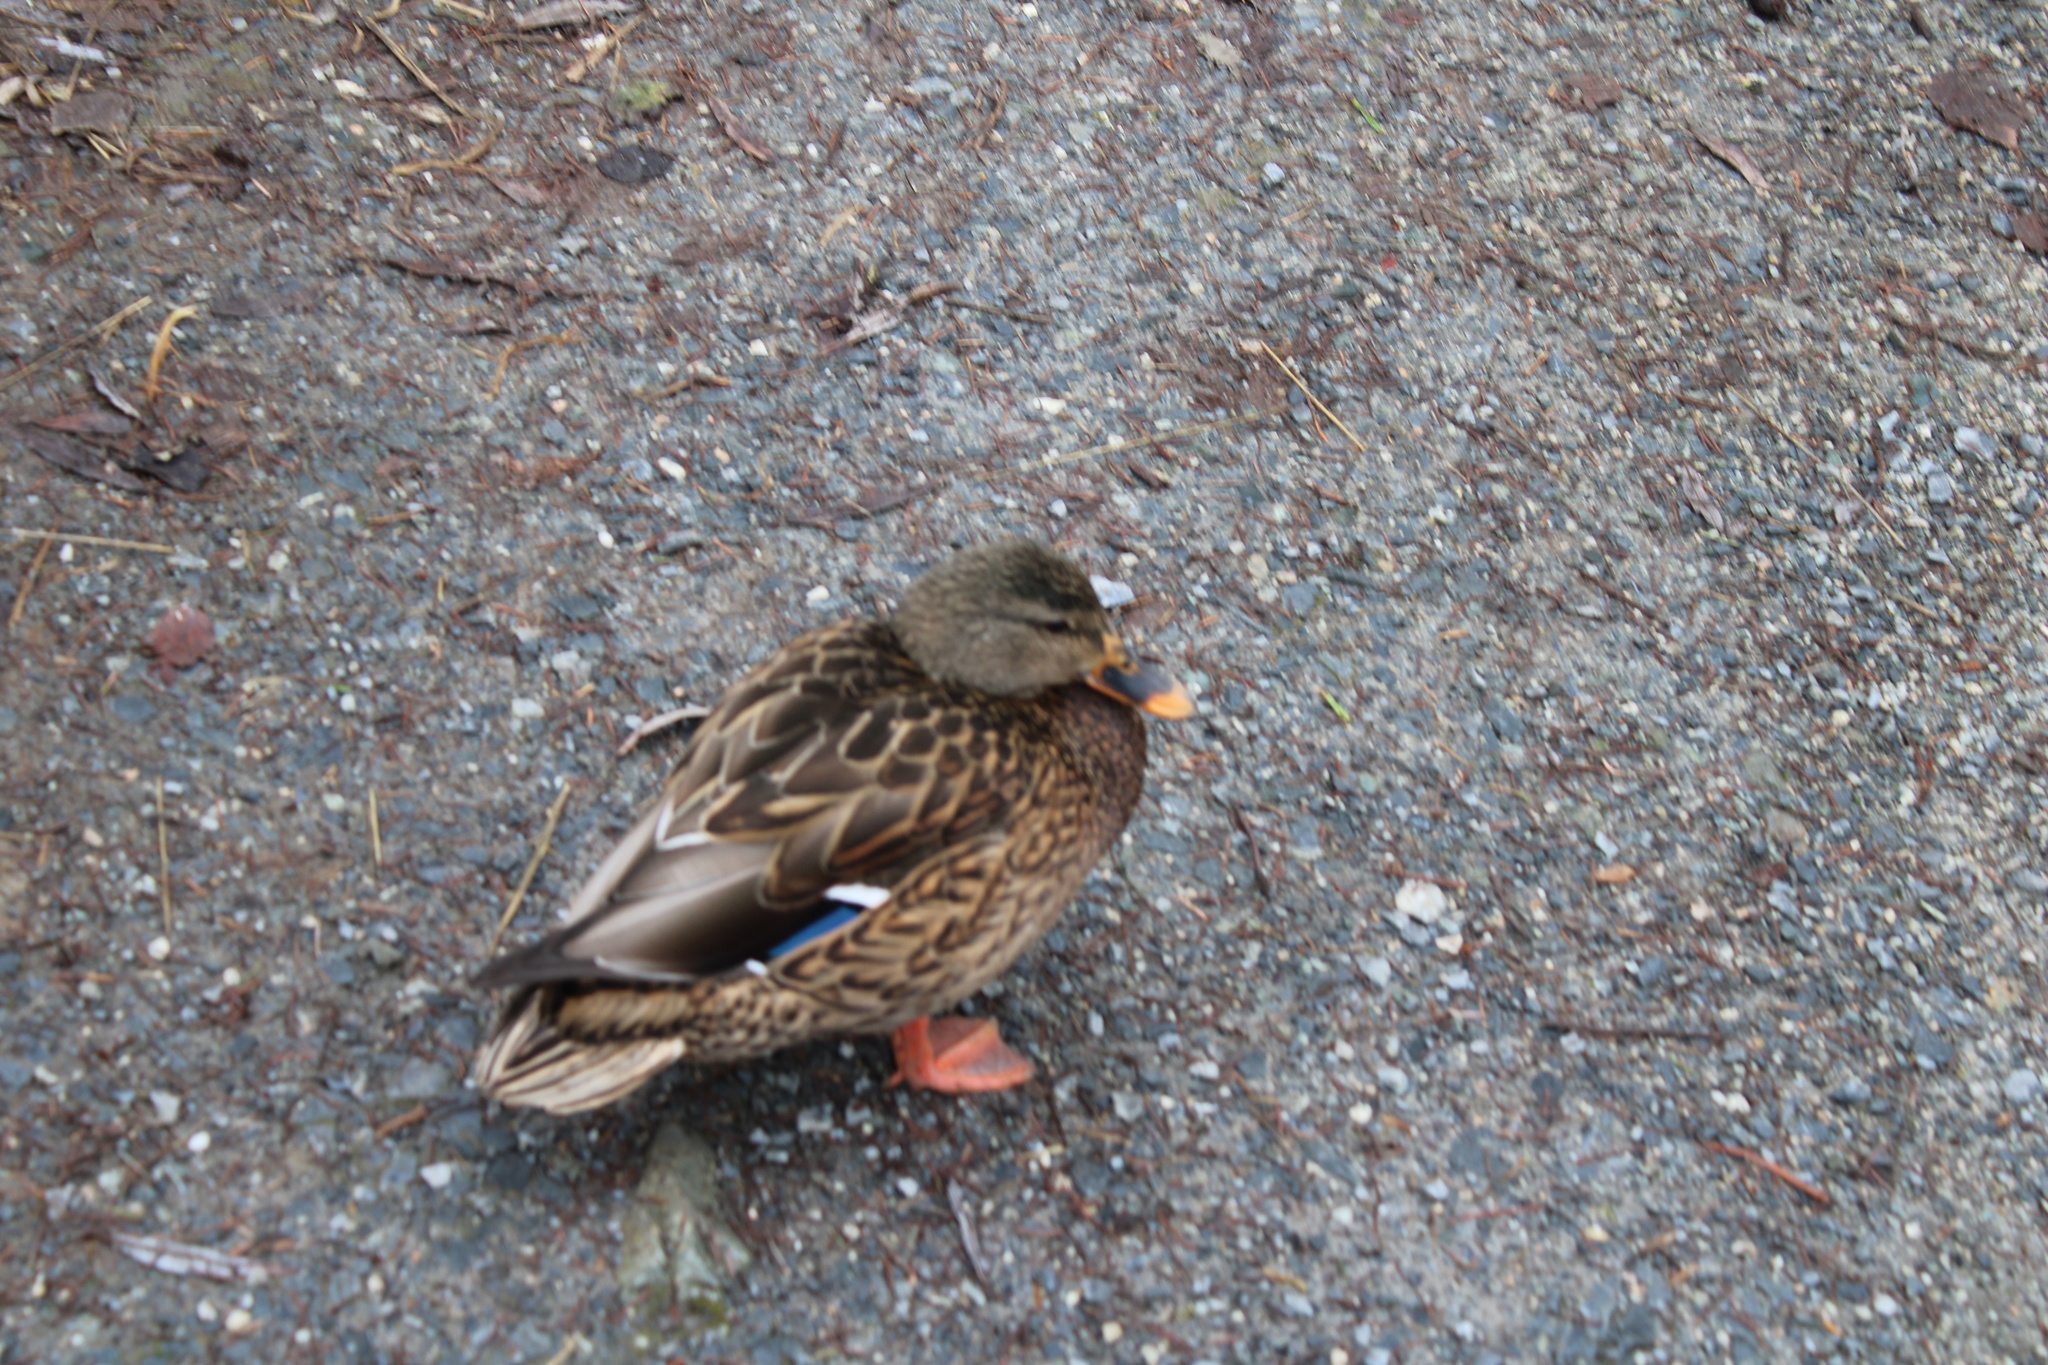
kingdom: Animalia
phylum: Chordata
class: Aves
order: Anseriformes
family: Anatidae
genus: Anas
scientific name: Anas platyrhynchos
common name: Mallard
